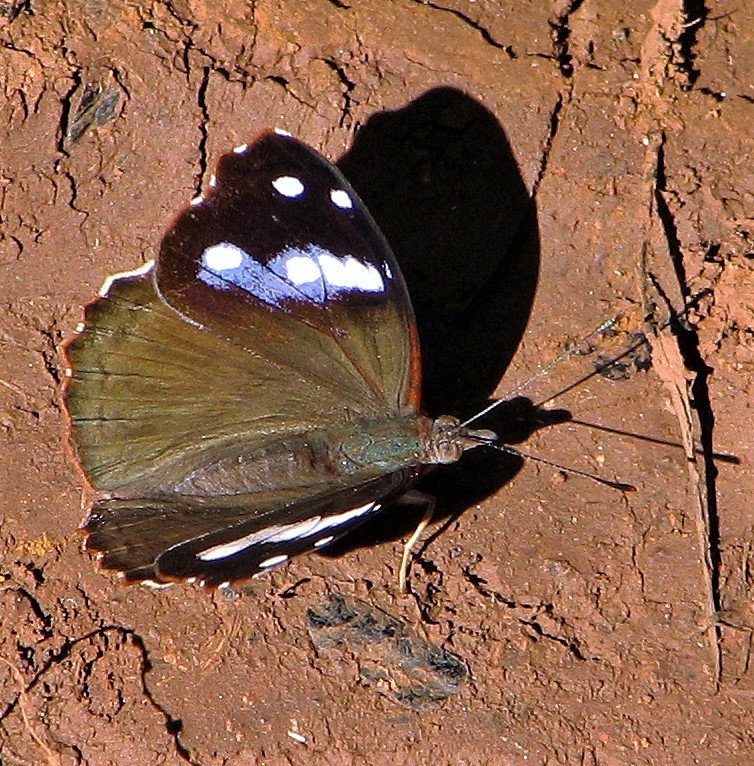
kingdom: Animalia
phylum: Arthropoda
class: Insecta
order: Lepidoptera
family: Nymphalidae
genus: Cybdelis
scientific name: Cybdelis phaesyla
